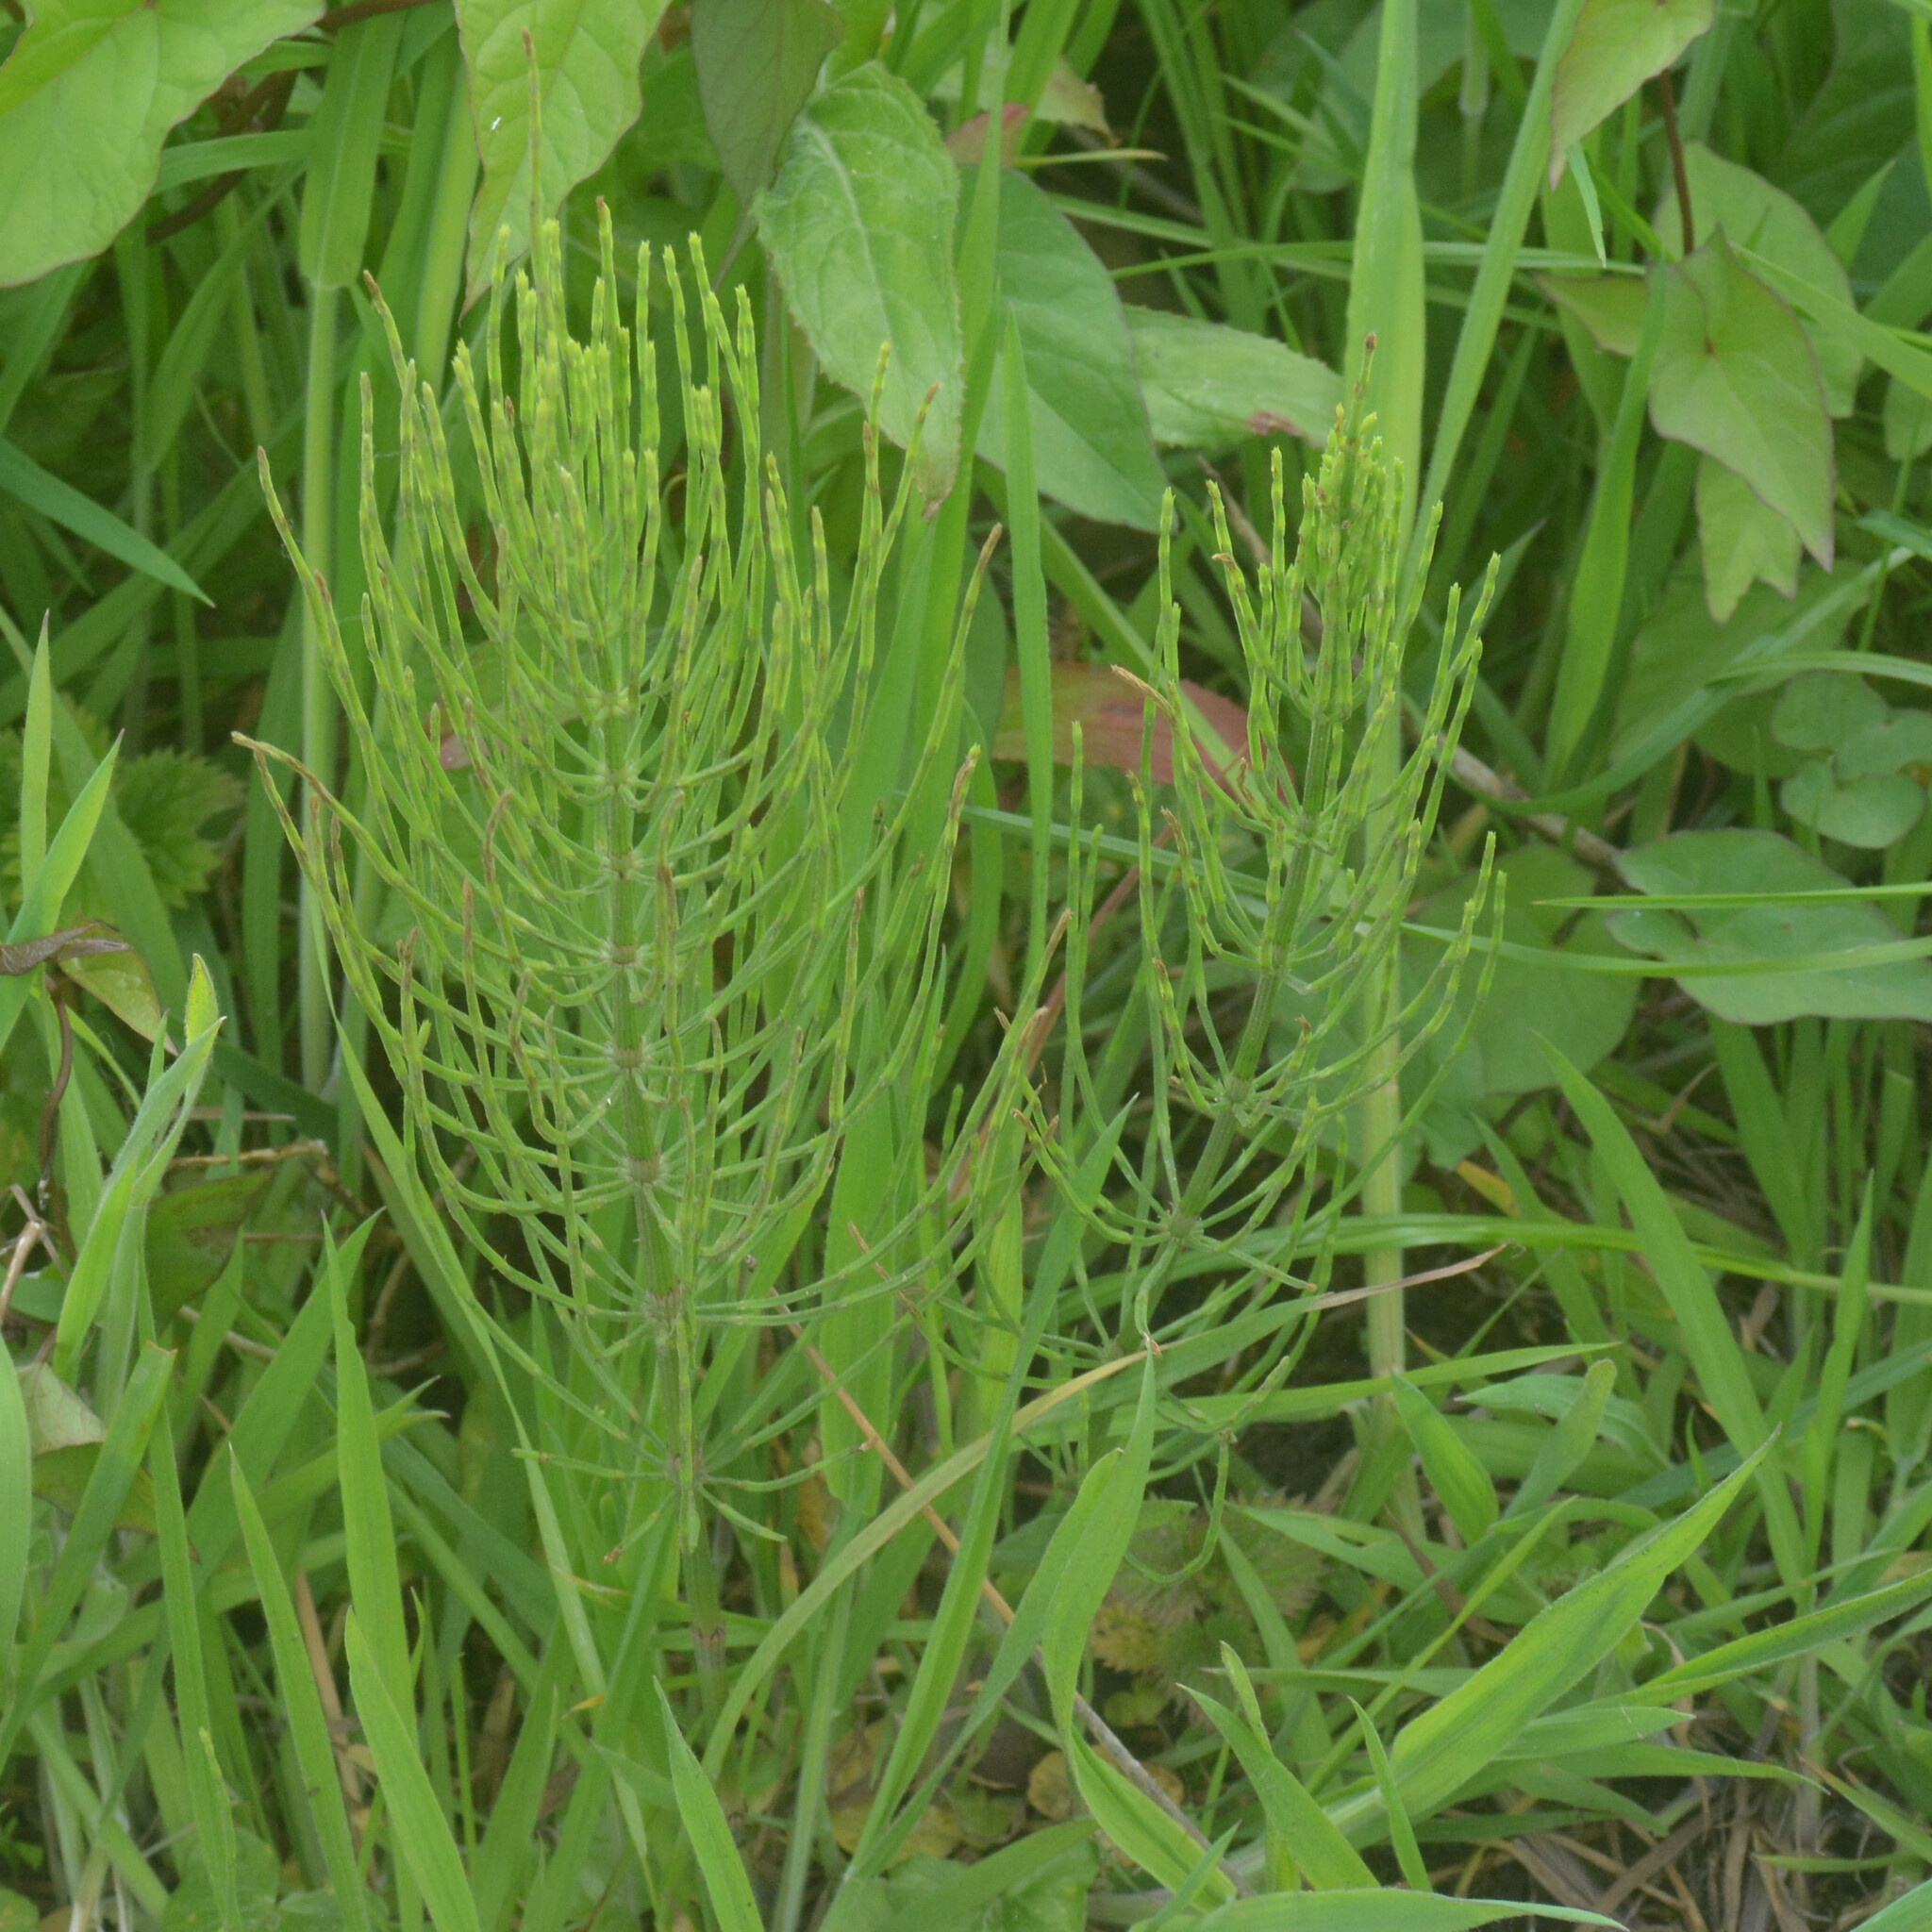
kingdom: Plantae
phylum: Tracheophyta
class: Polypodiopsida
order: Equisetales
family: Equisetaceae
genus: Equisetum
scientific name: Equisetum arvense
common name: Field horsetail
